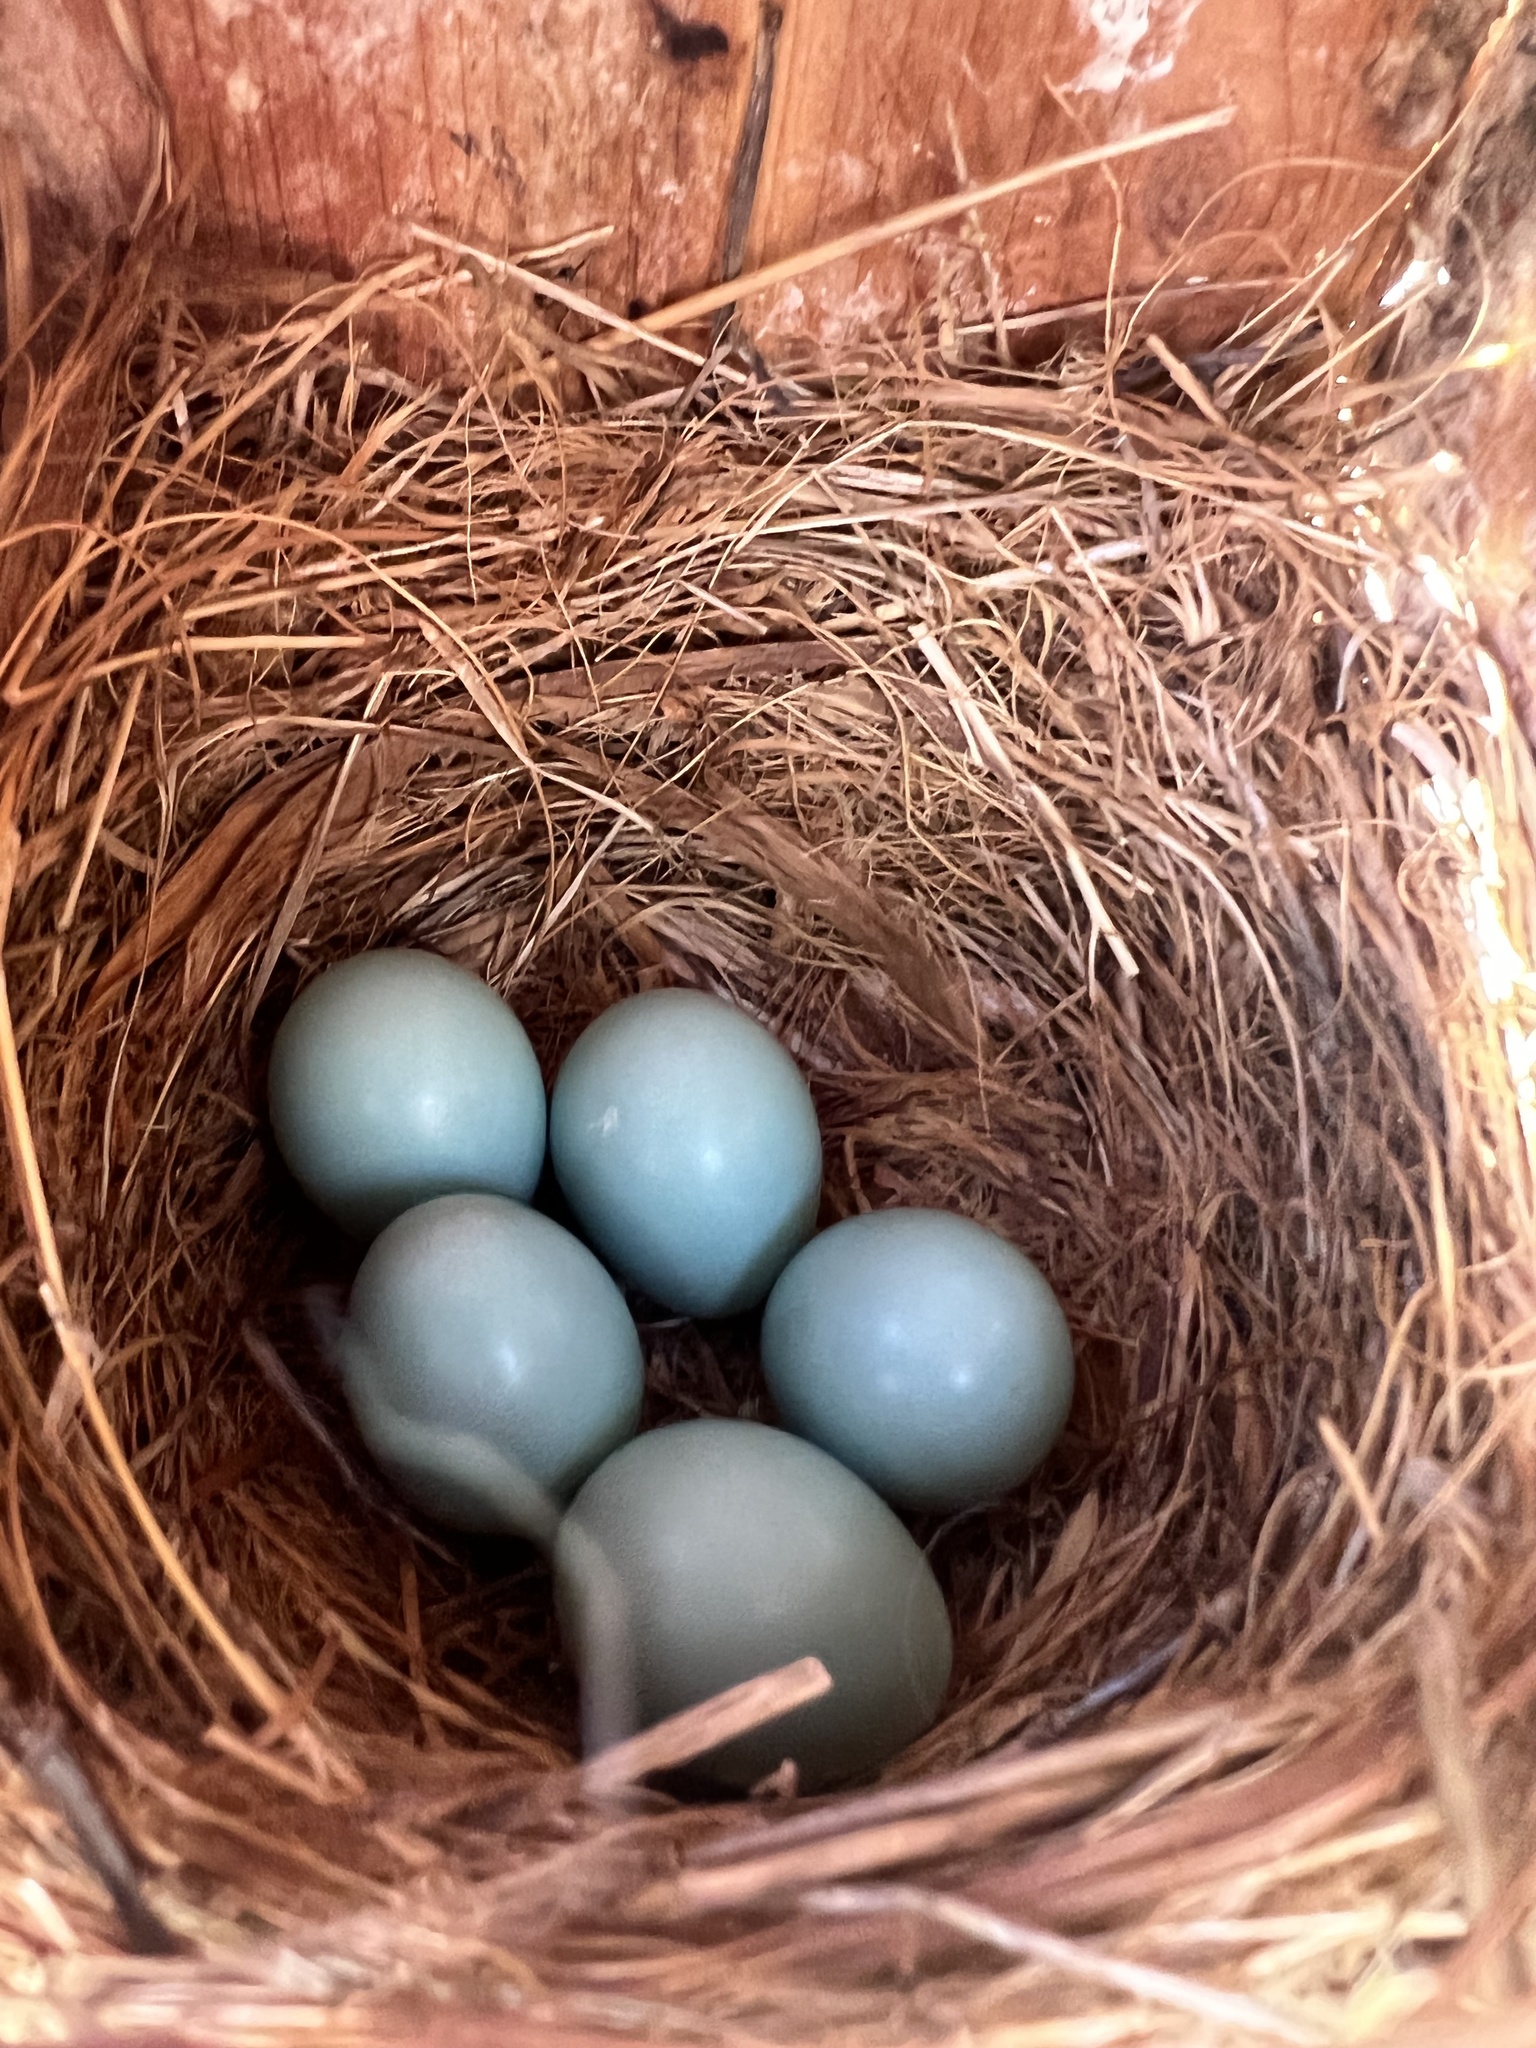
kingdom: Animalia
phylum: Chordata
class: Aves
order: Passeriformes
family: Turdidae
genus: Sialia
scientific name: Sialia sialis
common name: Eastern bluebird
